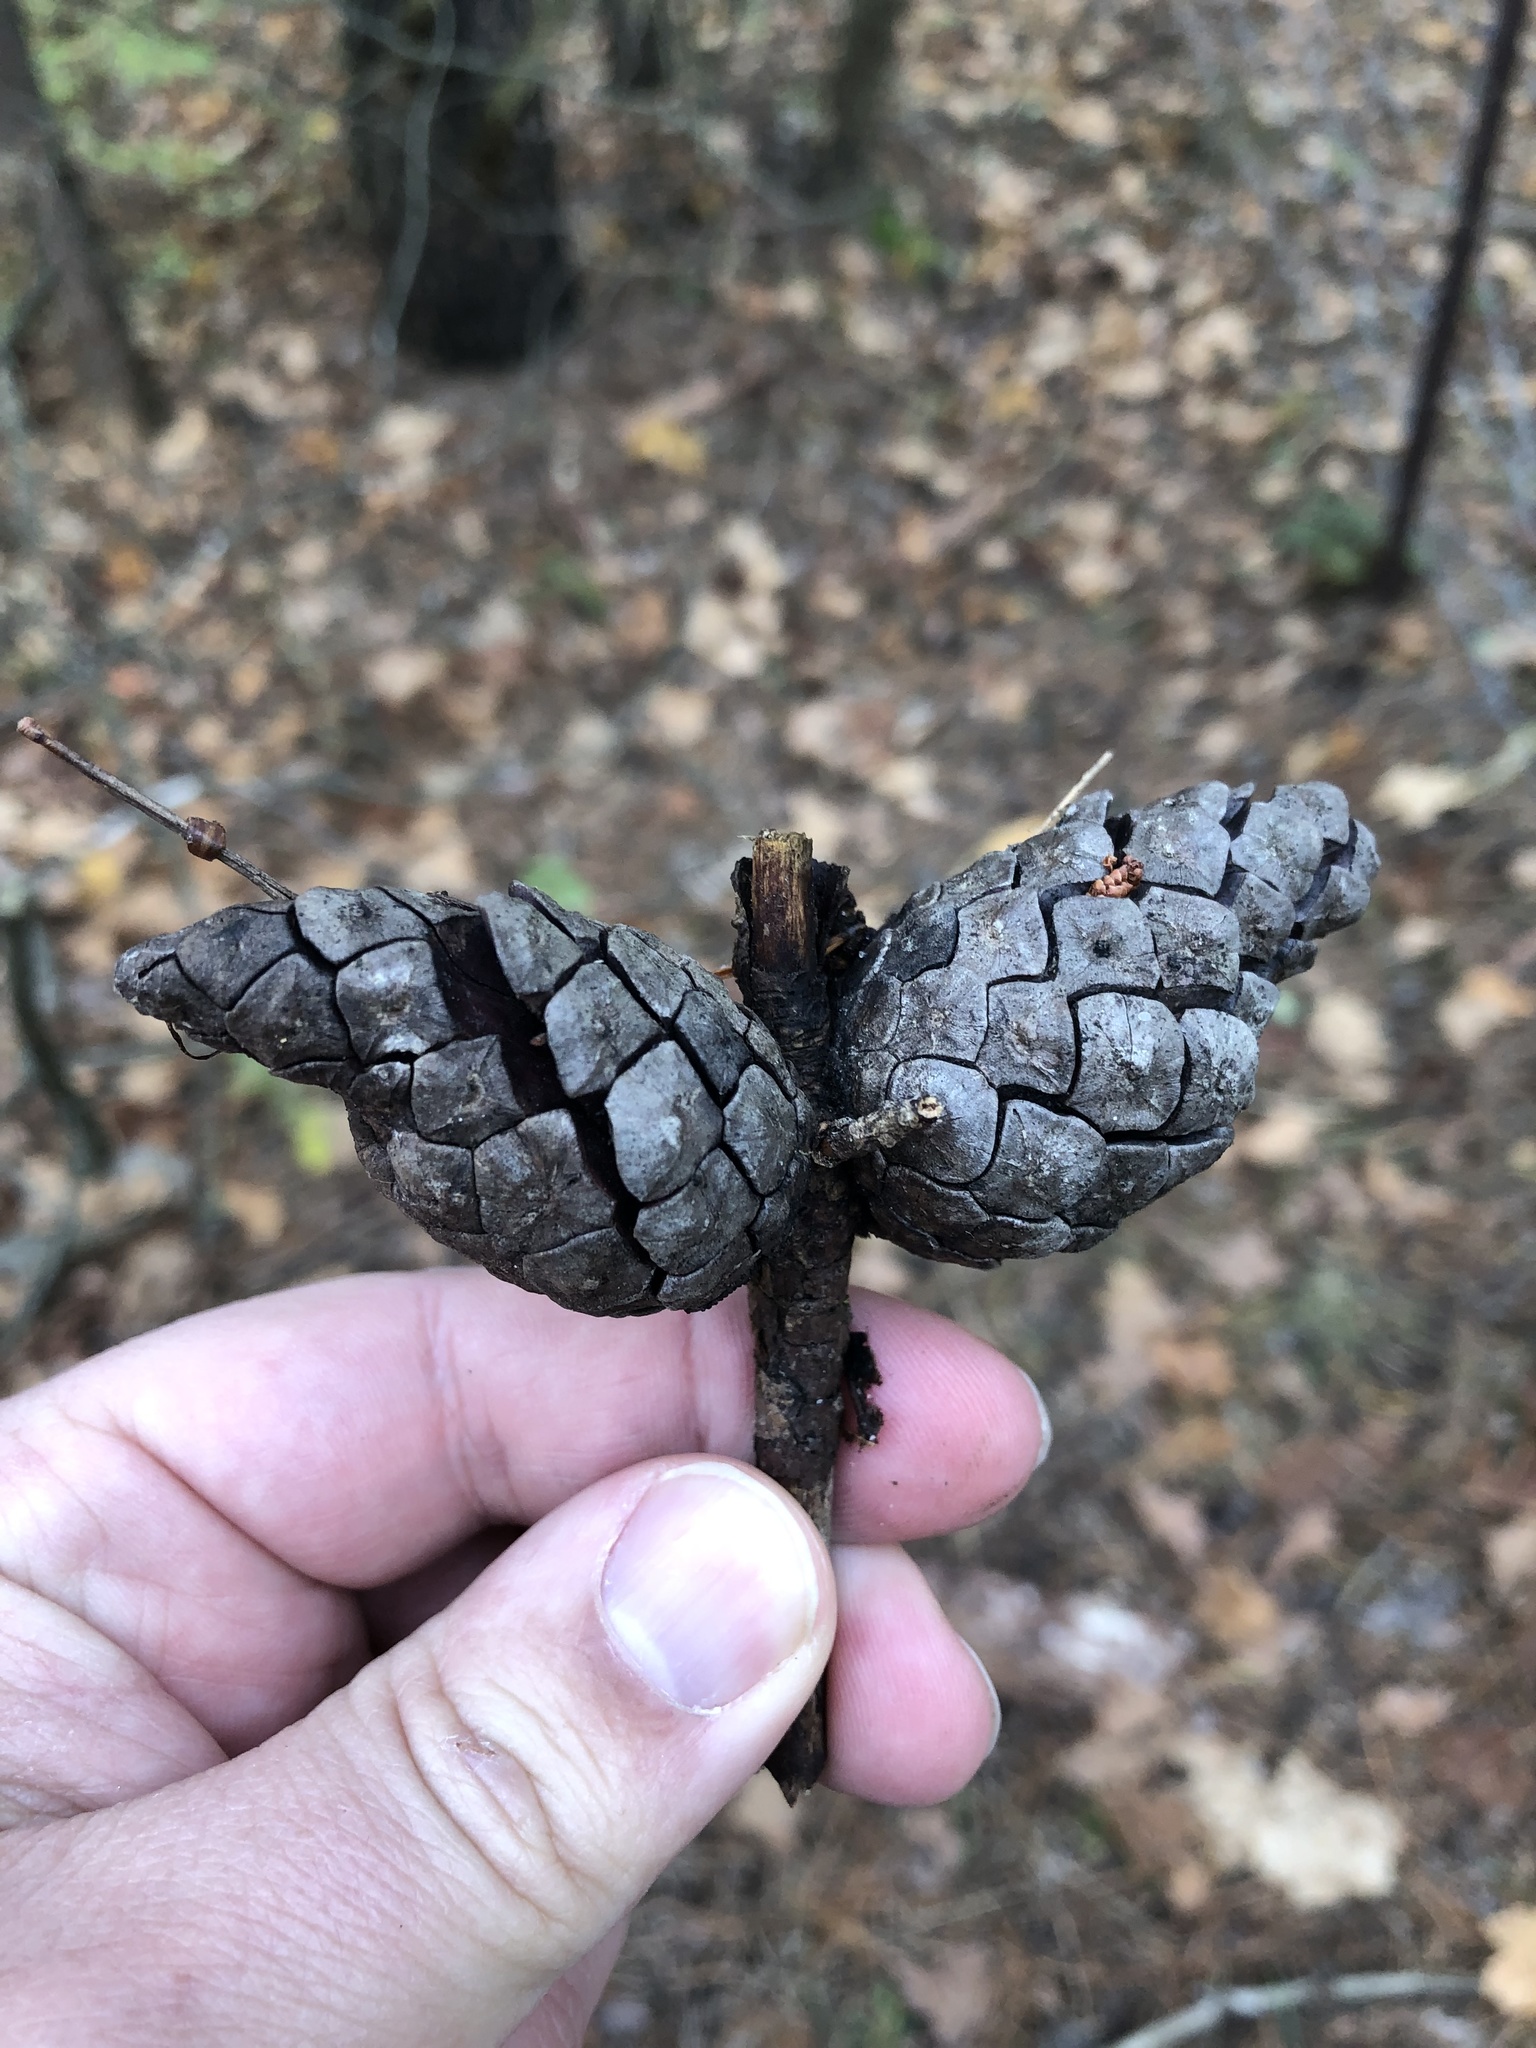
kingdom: Plantae
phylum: Tracheophyta
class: Pinopsida
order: Pinales
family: Pinaceae
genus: Pinus
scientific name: Pinus banksiana
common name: Jack pine
